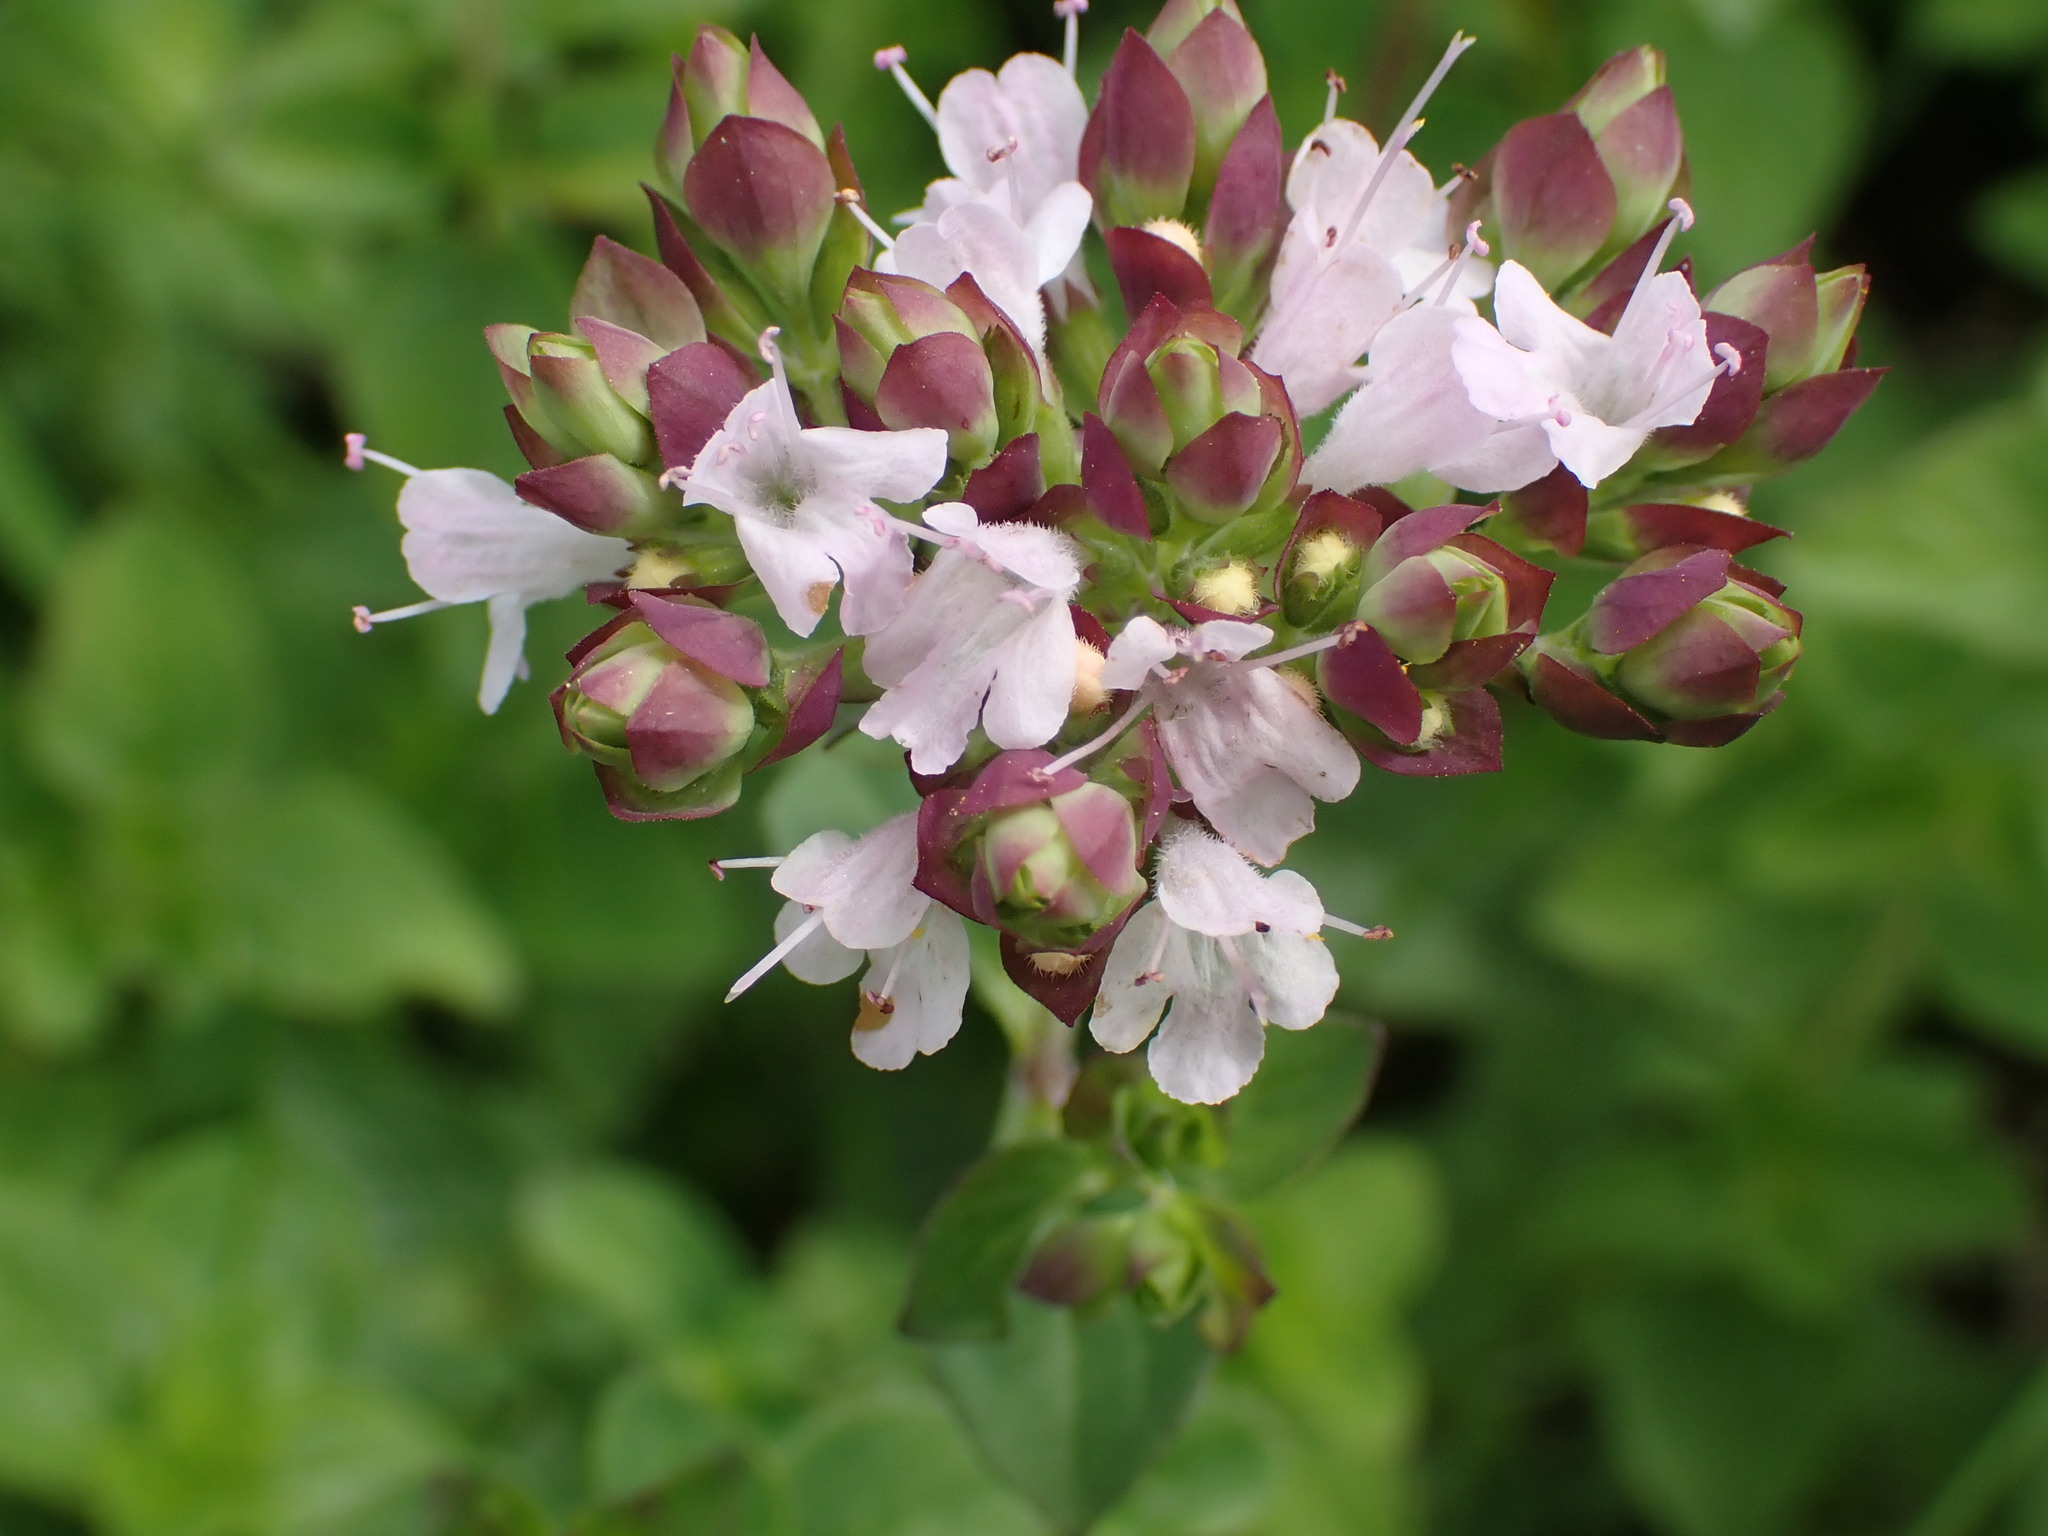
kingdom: Plantae
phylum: Tracheophyta
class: Magnoliopsida
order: Lamiales
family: Lamiaceae
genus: Origanum
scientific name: Origanum vulgare
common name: Wild marjoram
